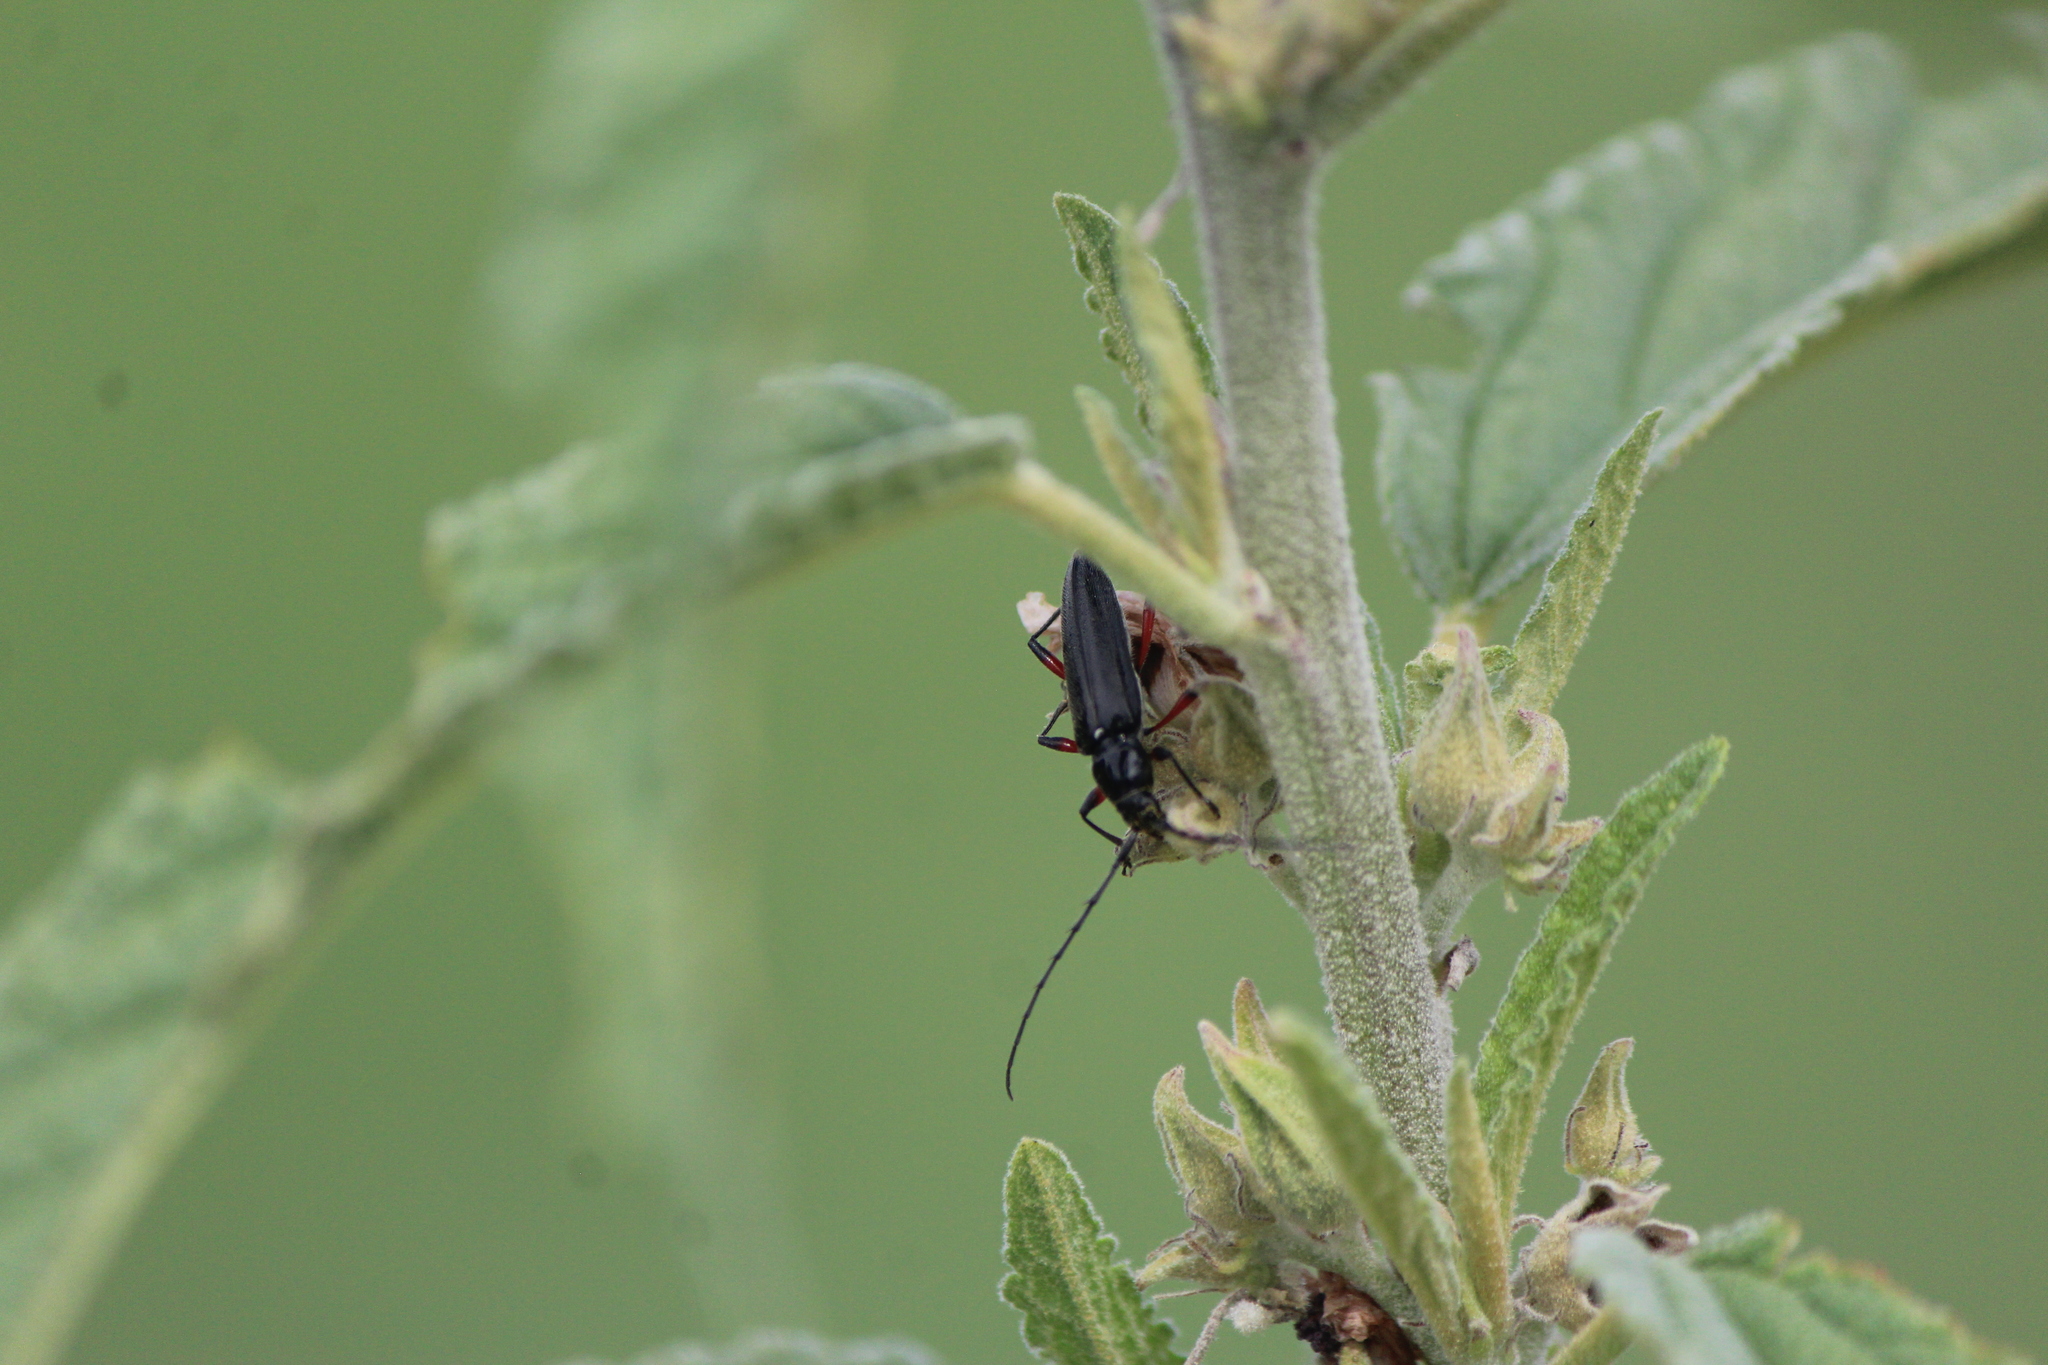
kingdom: Animalia
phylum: Arthropoda
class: Insecta
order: Coleoptera
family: Cerambycidae
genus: Stenosphenus
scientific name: Stenosphenus sobrius
